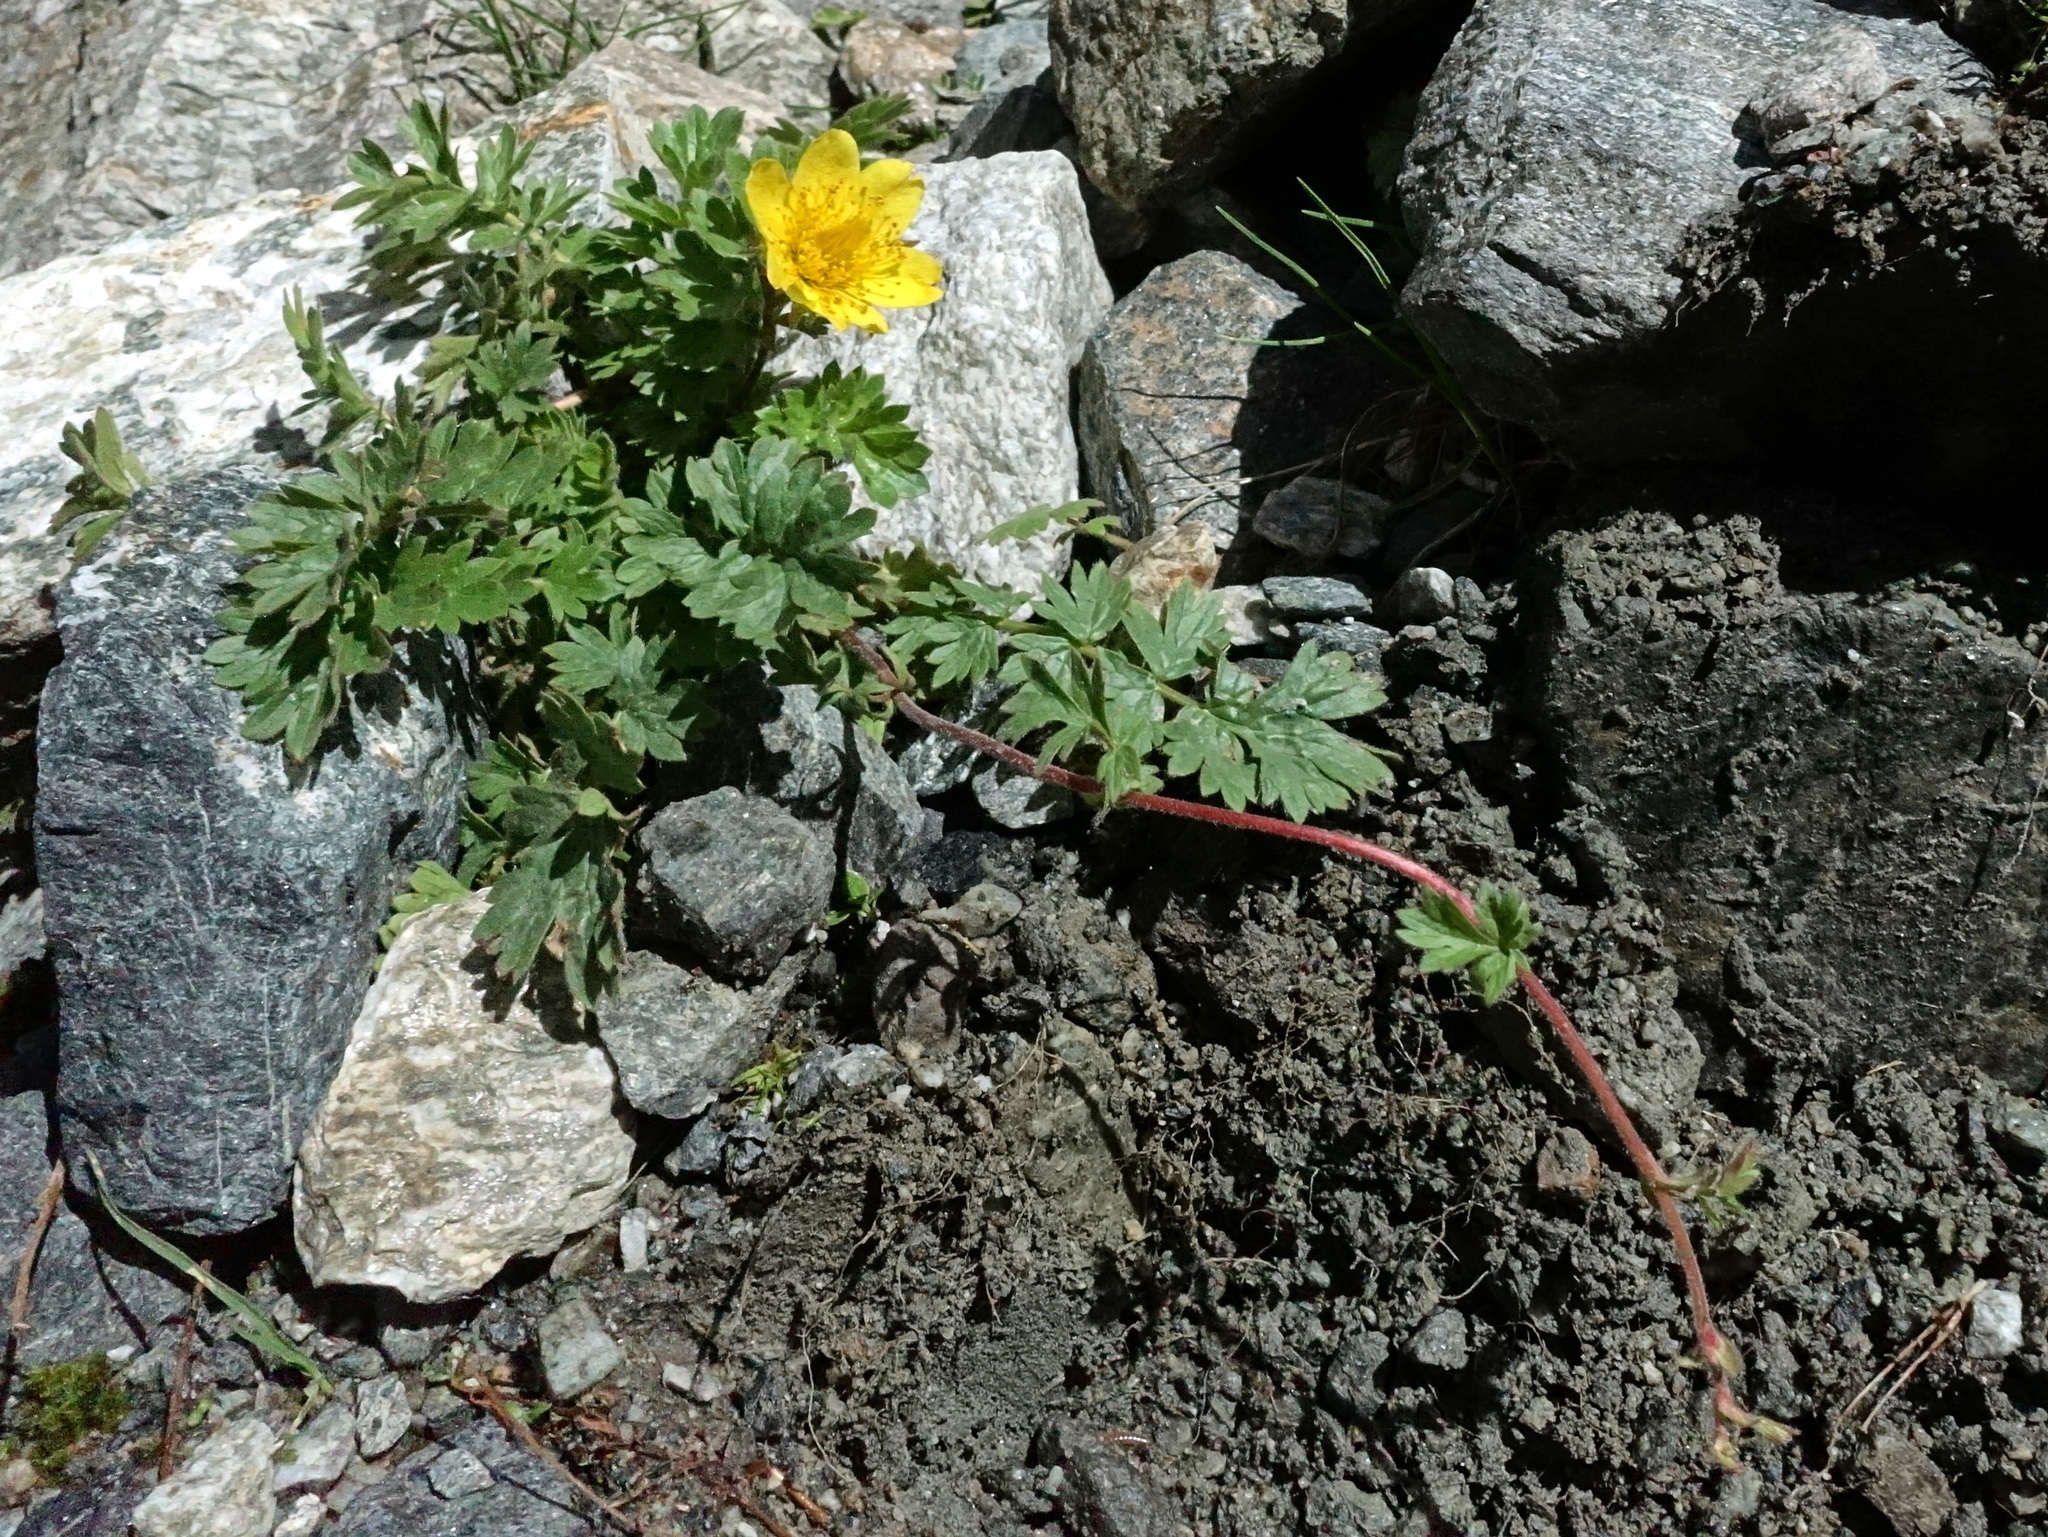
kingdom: Plantae
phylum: Tracheophyta
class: Magnoliopsida
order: Rosales
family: Rosaceae
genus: Geum
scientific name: Geum reptans
